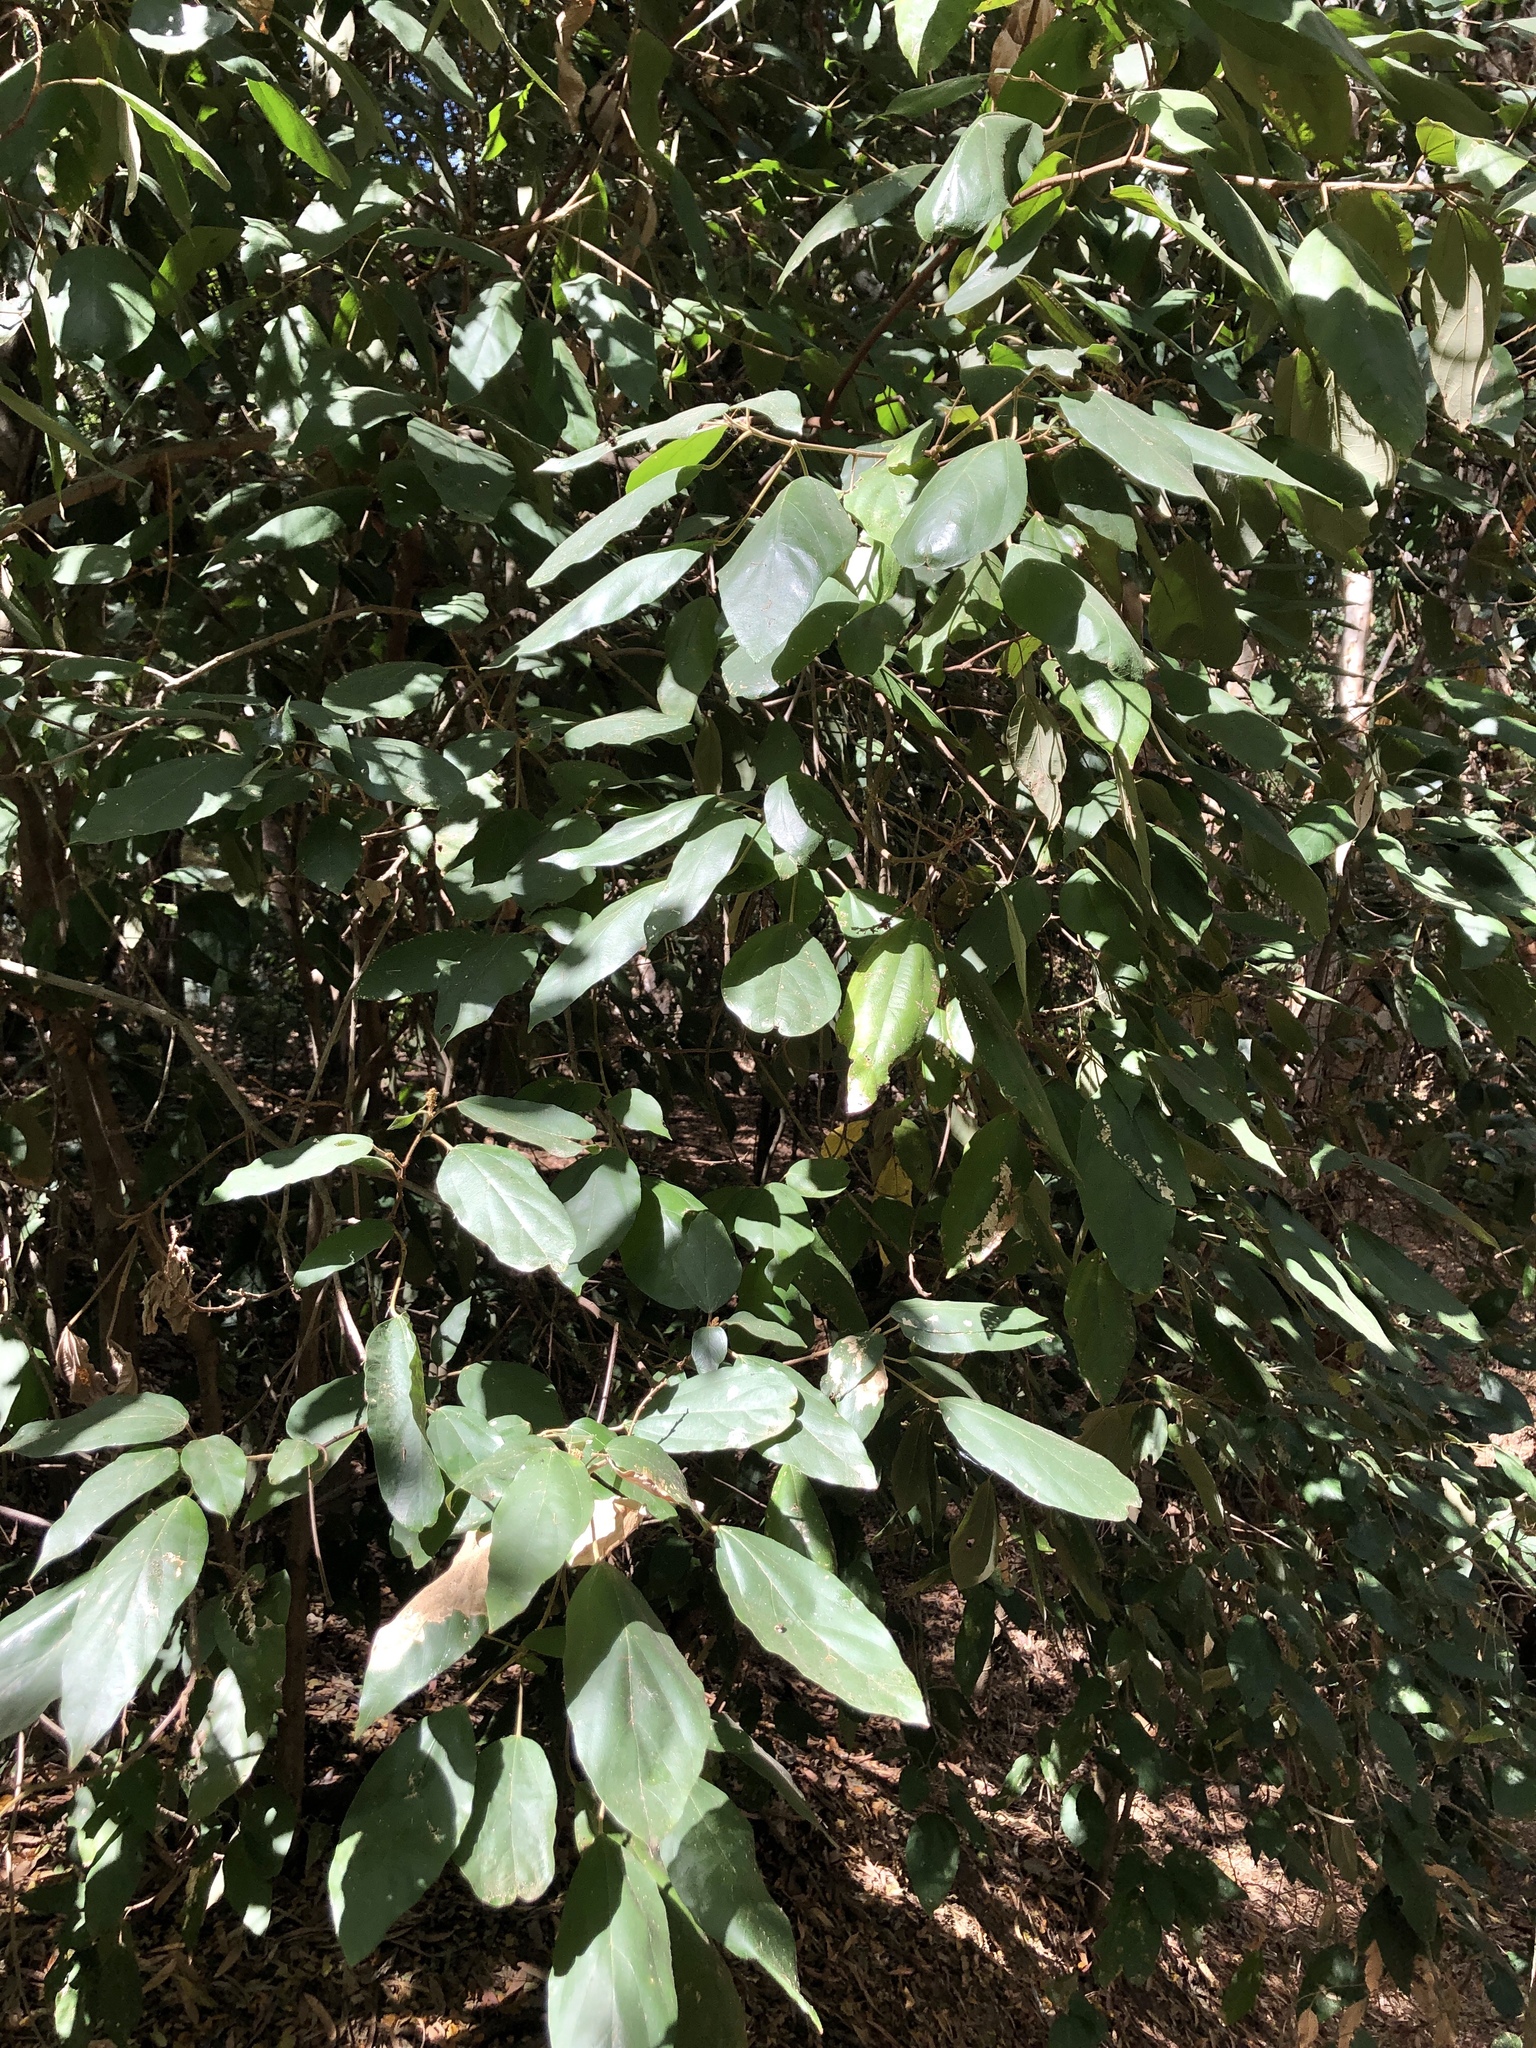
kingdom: Plantae
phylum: Tracheophyta
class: Magnoliopsida
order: Malpighiales
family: Euphorbiaceae
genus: Mallotus
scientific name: Mallotus philippensis
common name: Kamala tree
